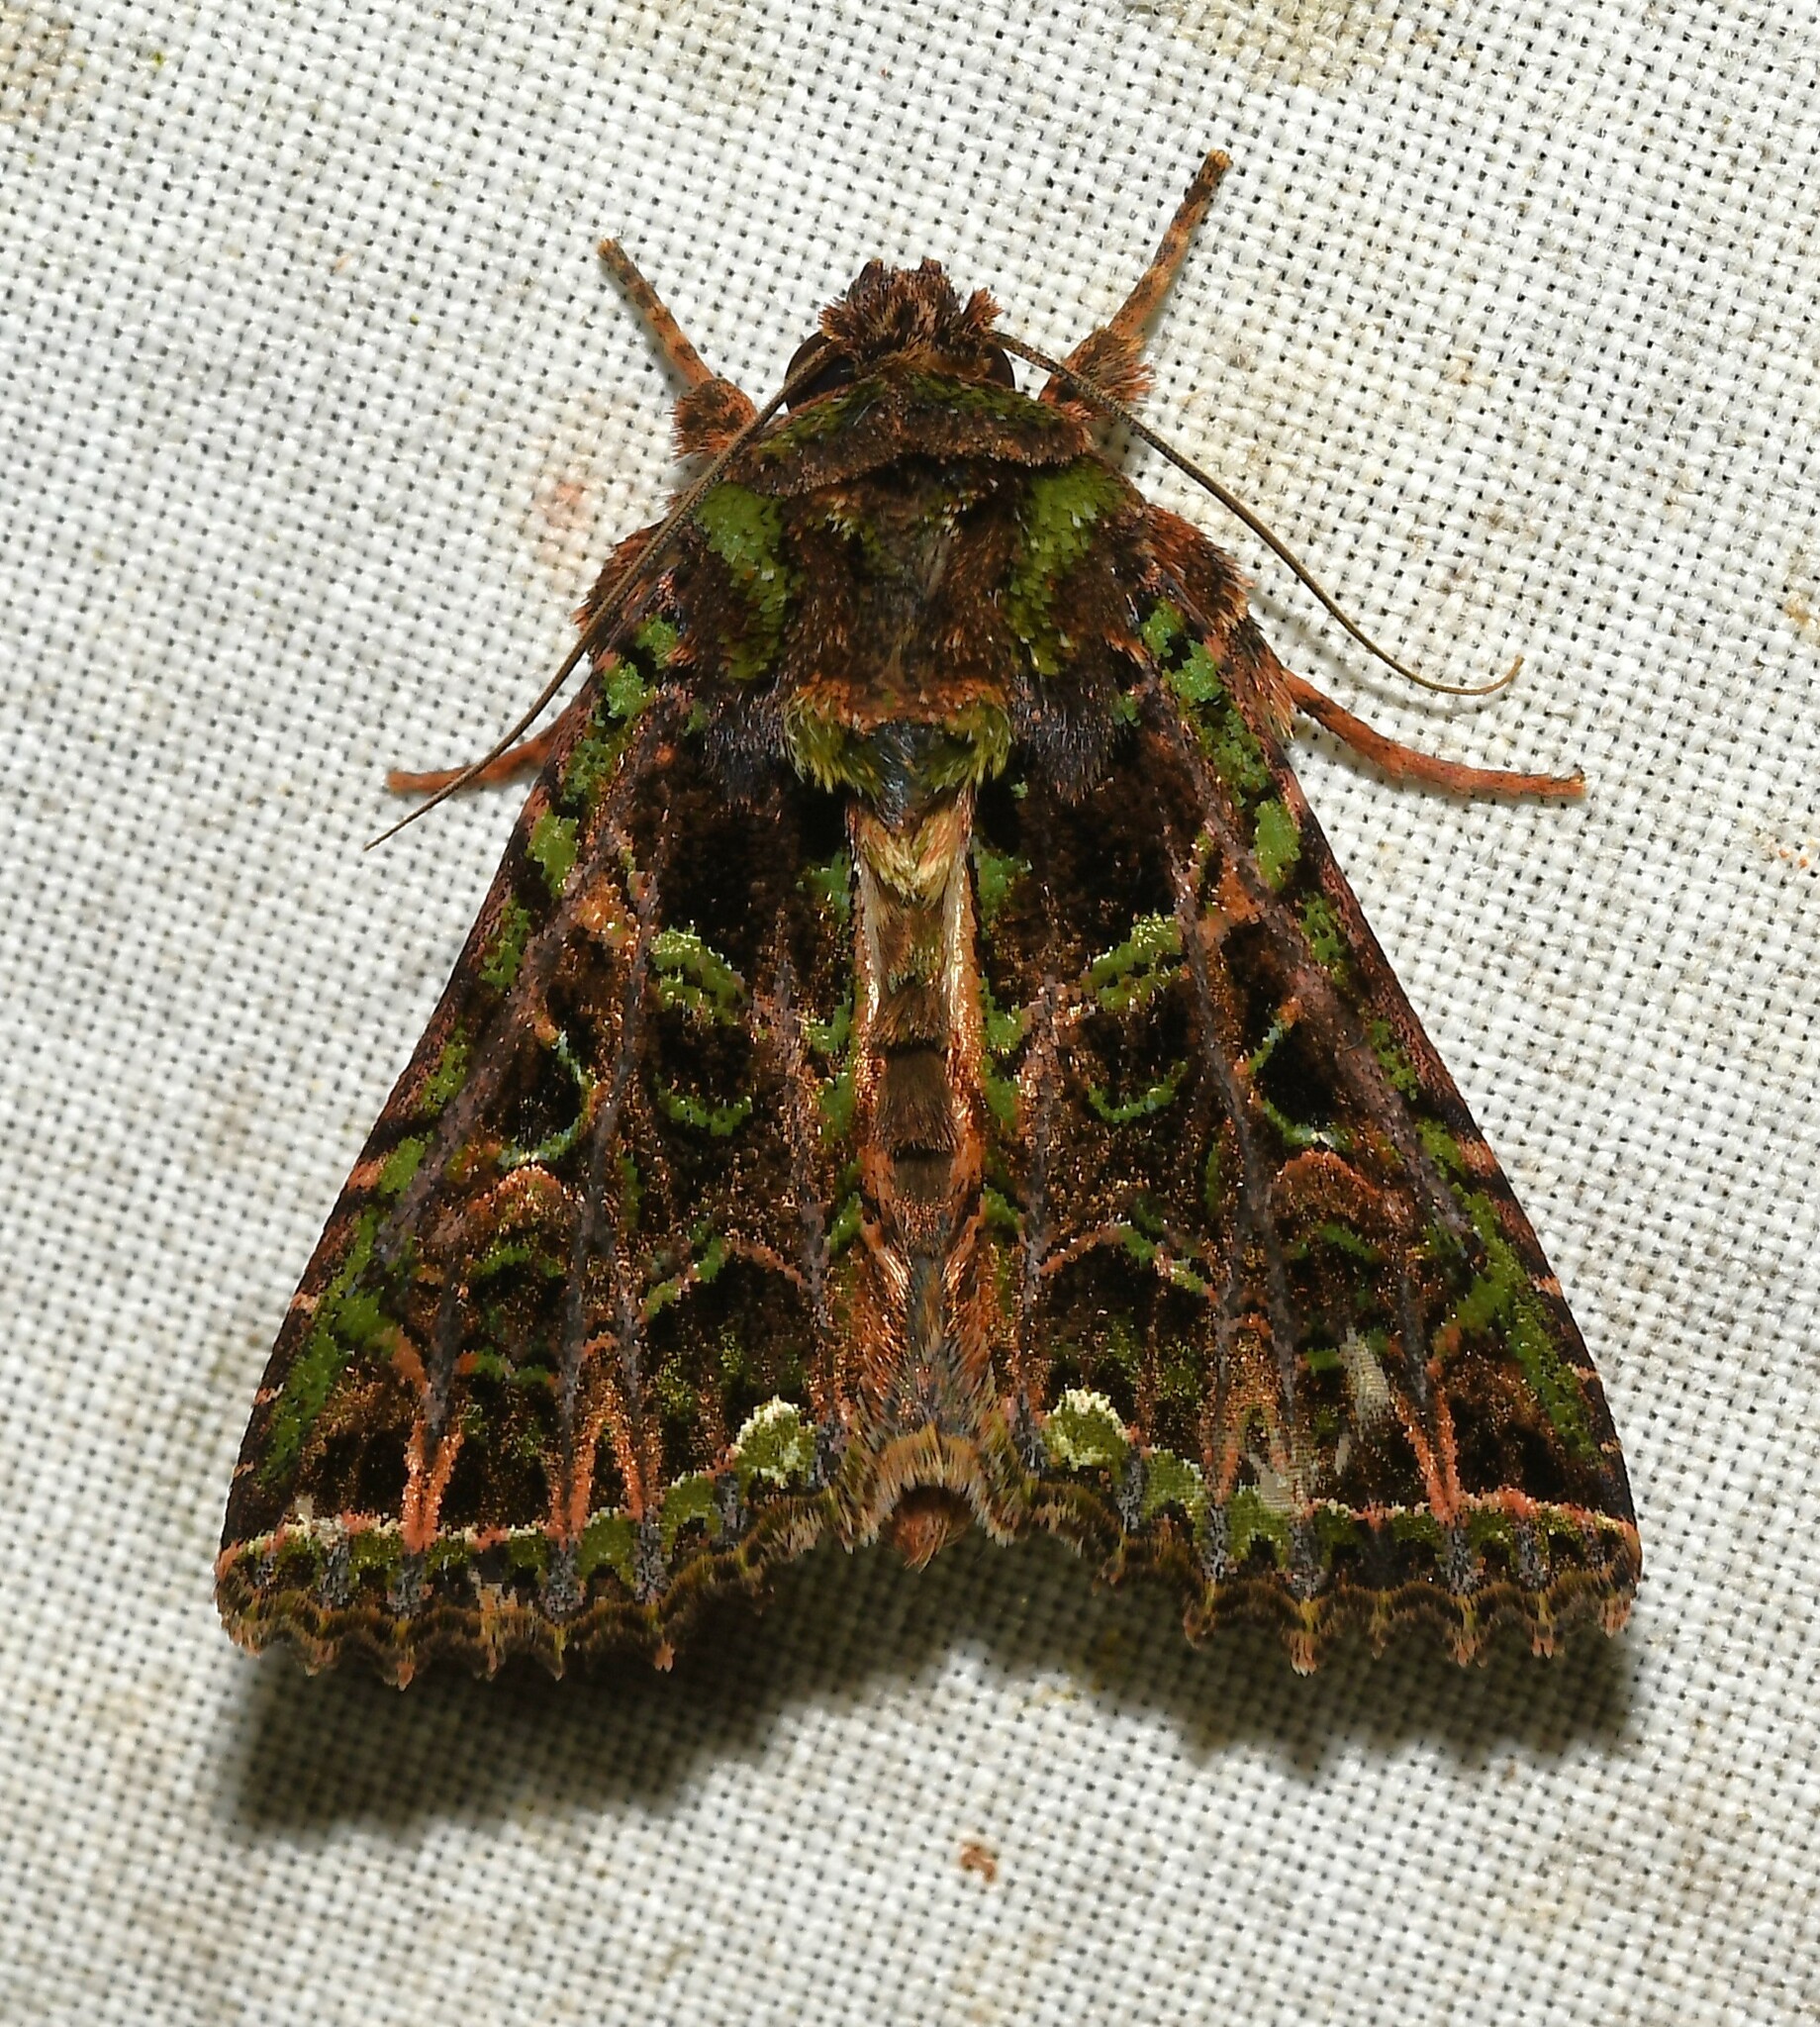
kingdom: Animalia
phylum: Arthropoda
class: Insecta
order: Lepidoptera
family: Noctuidae
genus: Heterochroma
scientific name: Heterochroma berylloides
